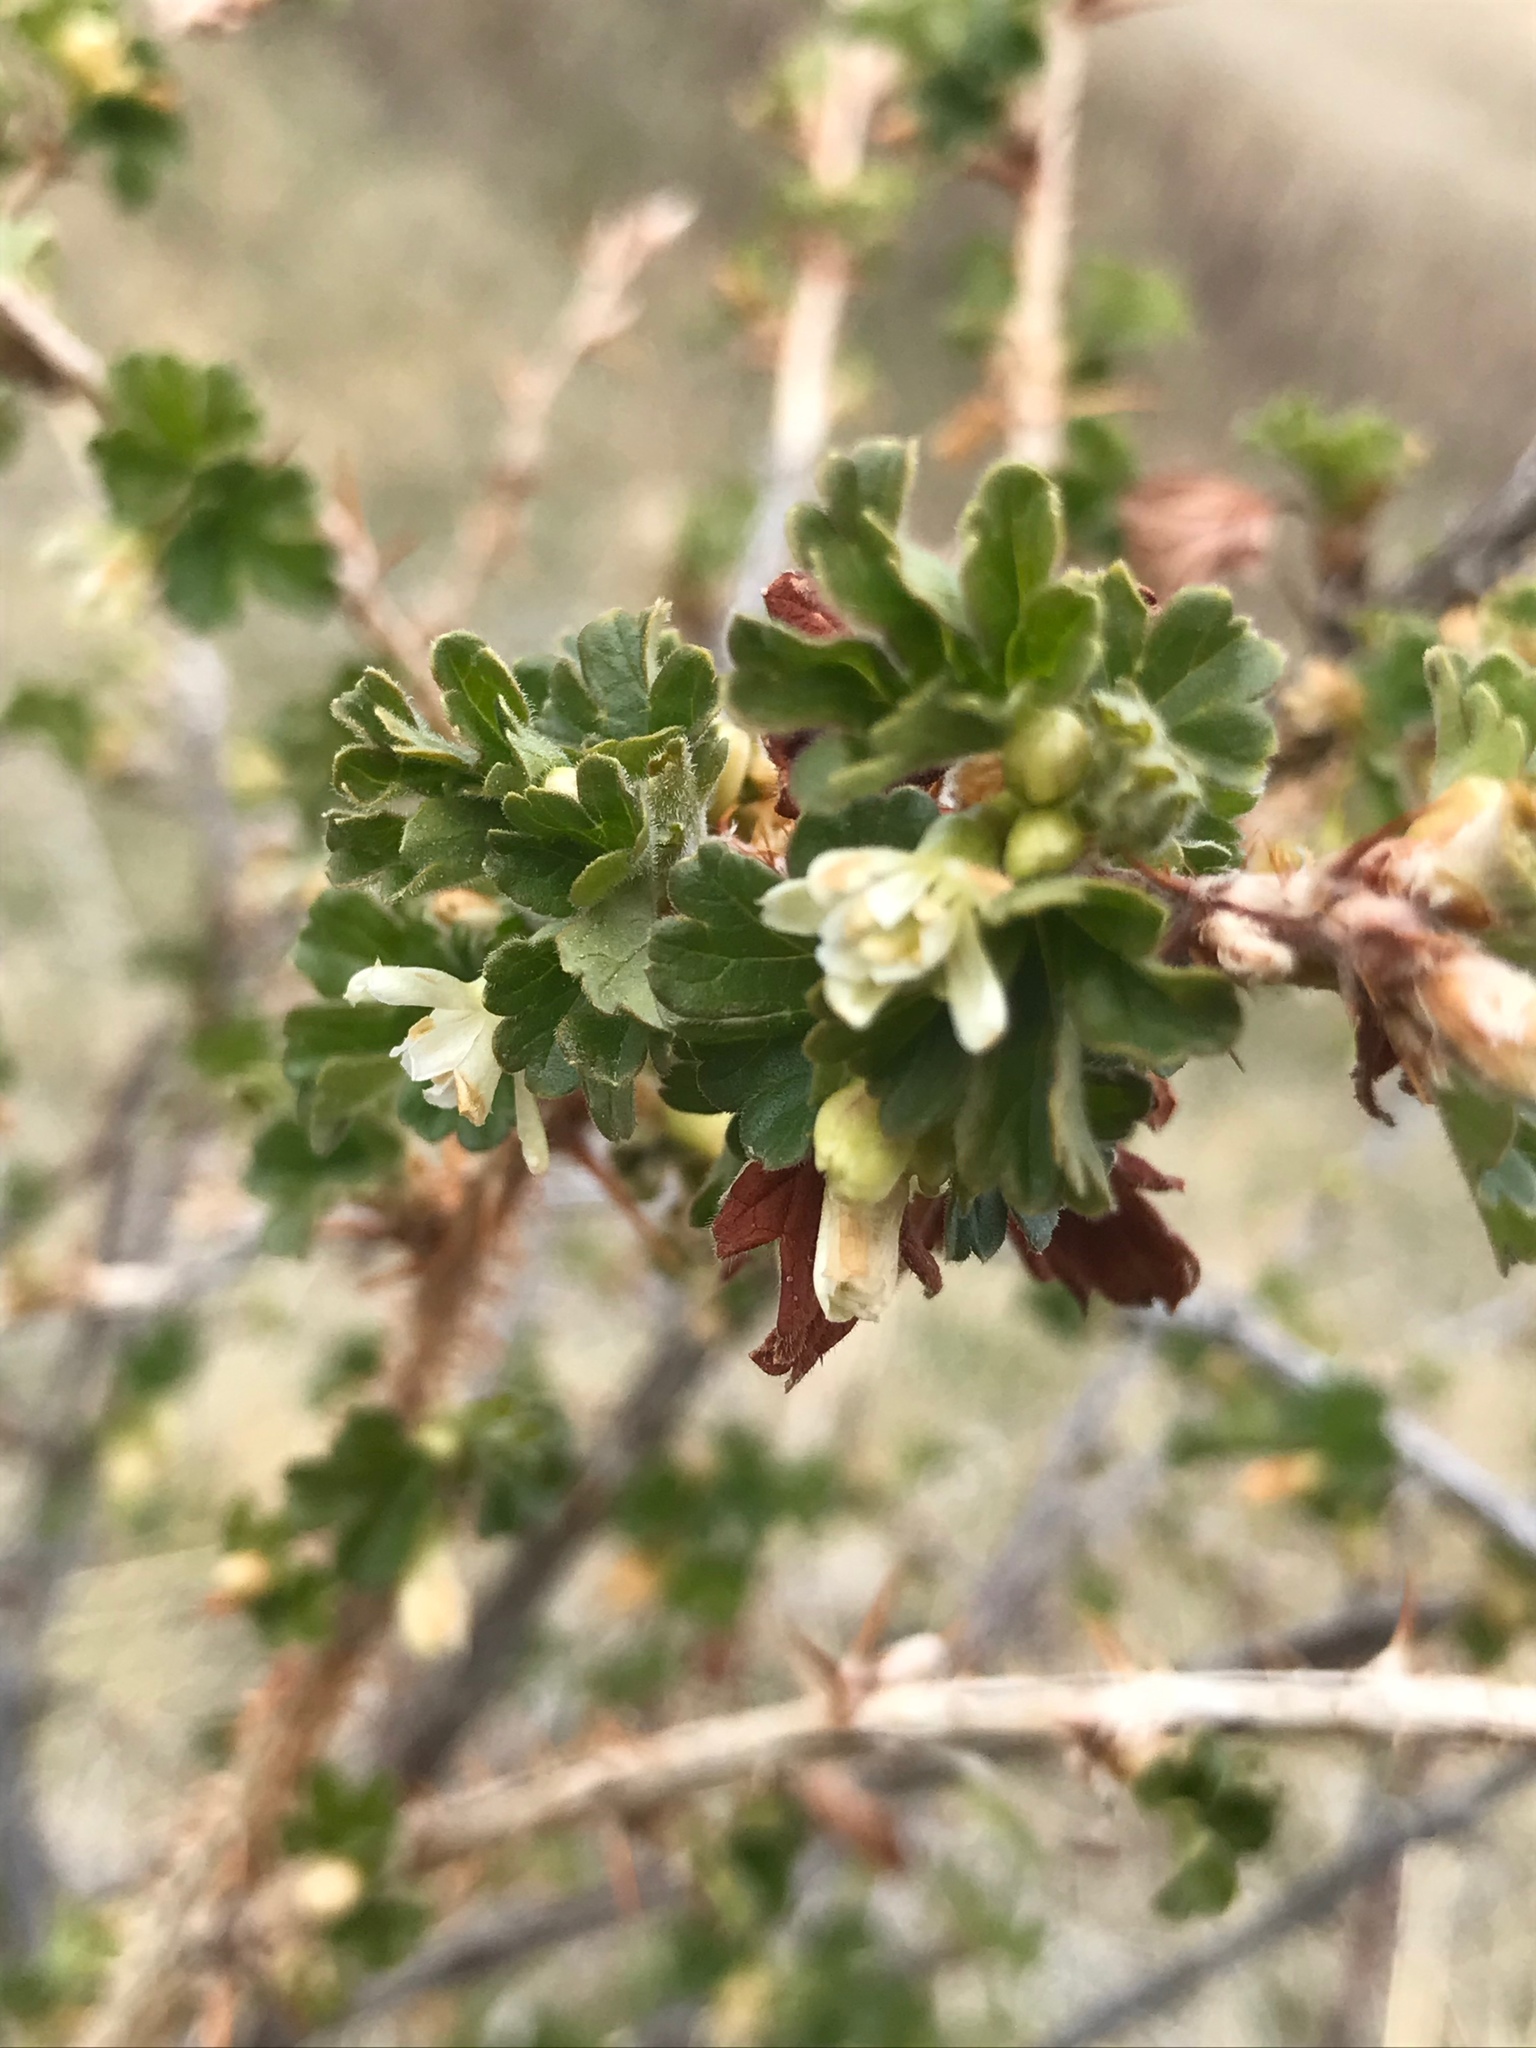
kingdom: Plantae
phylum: Tracheophyta
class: Magnoliopsida
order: Saxifragales
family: Grossulariaceae
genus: Ribes
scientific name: Ribes oxyacanthoides
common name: Northern gooseberry
